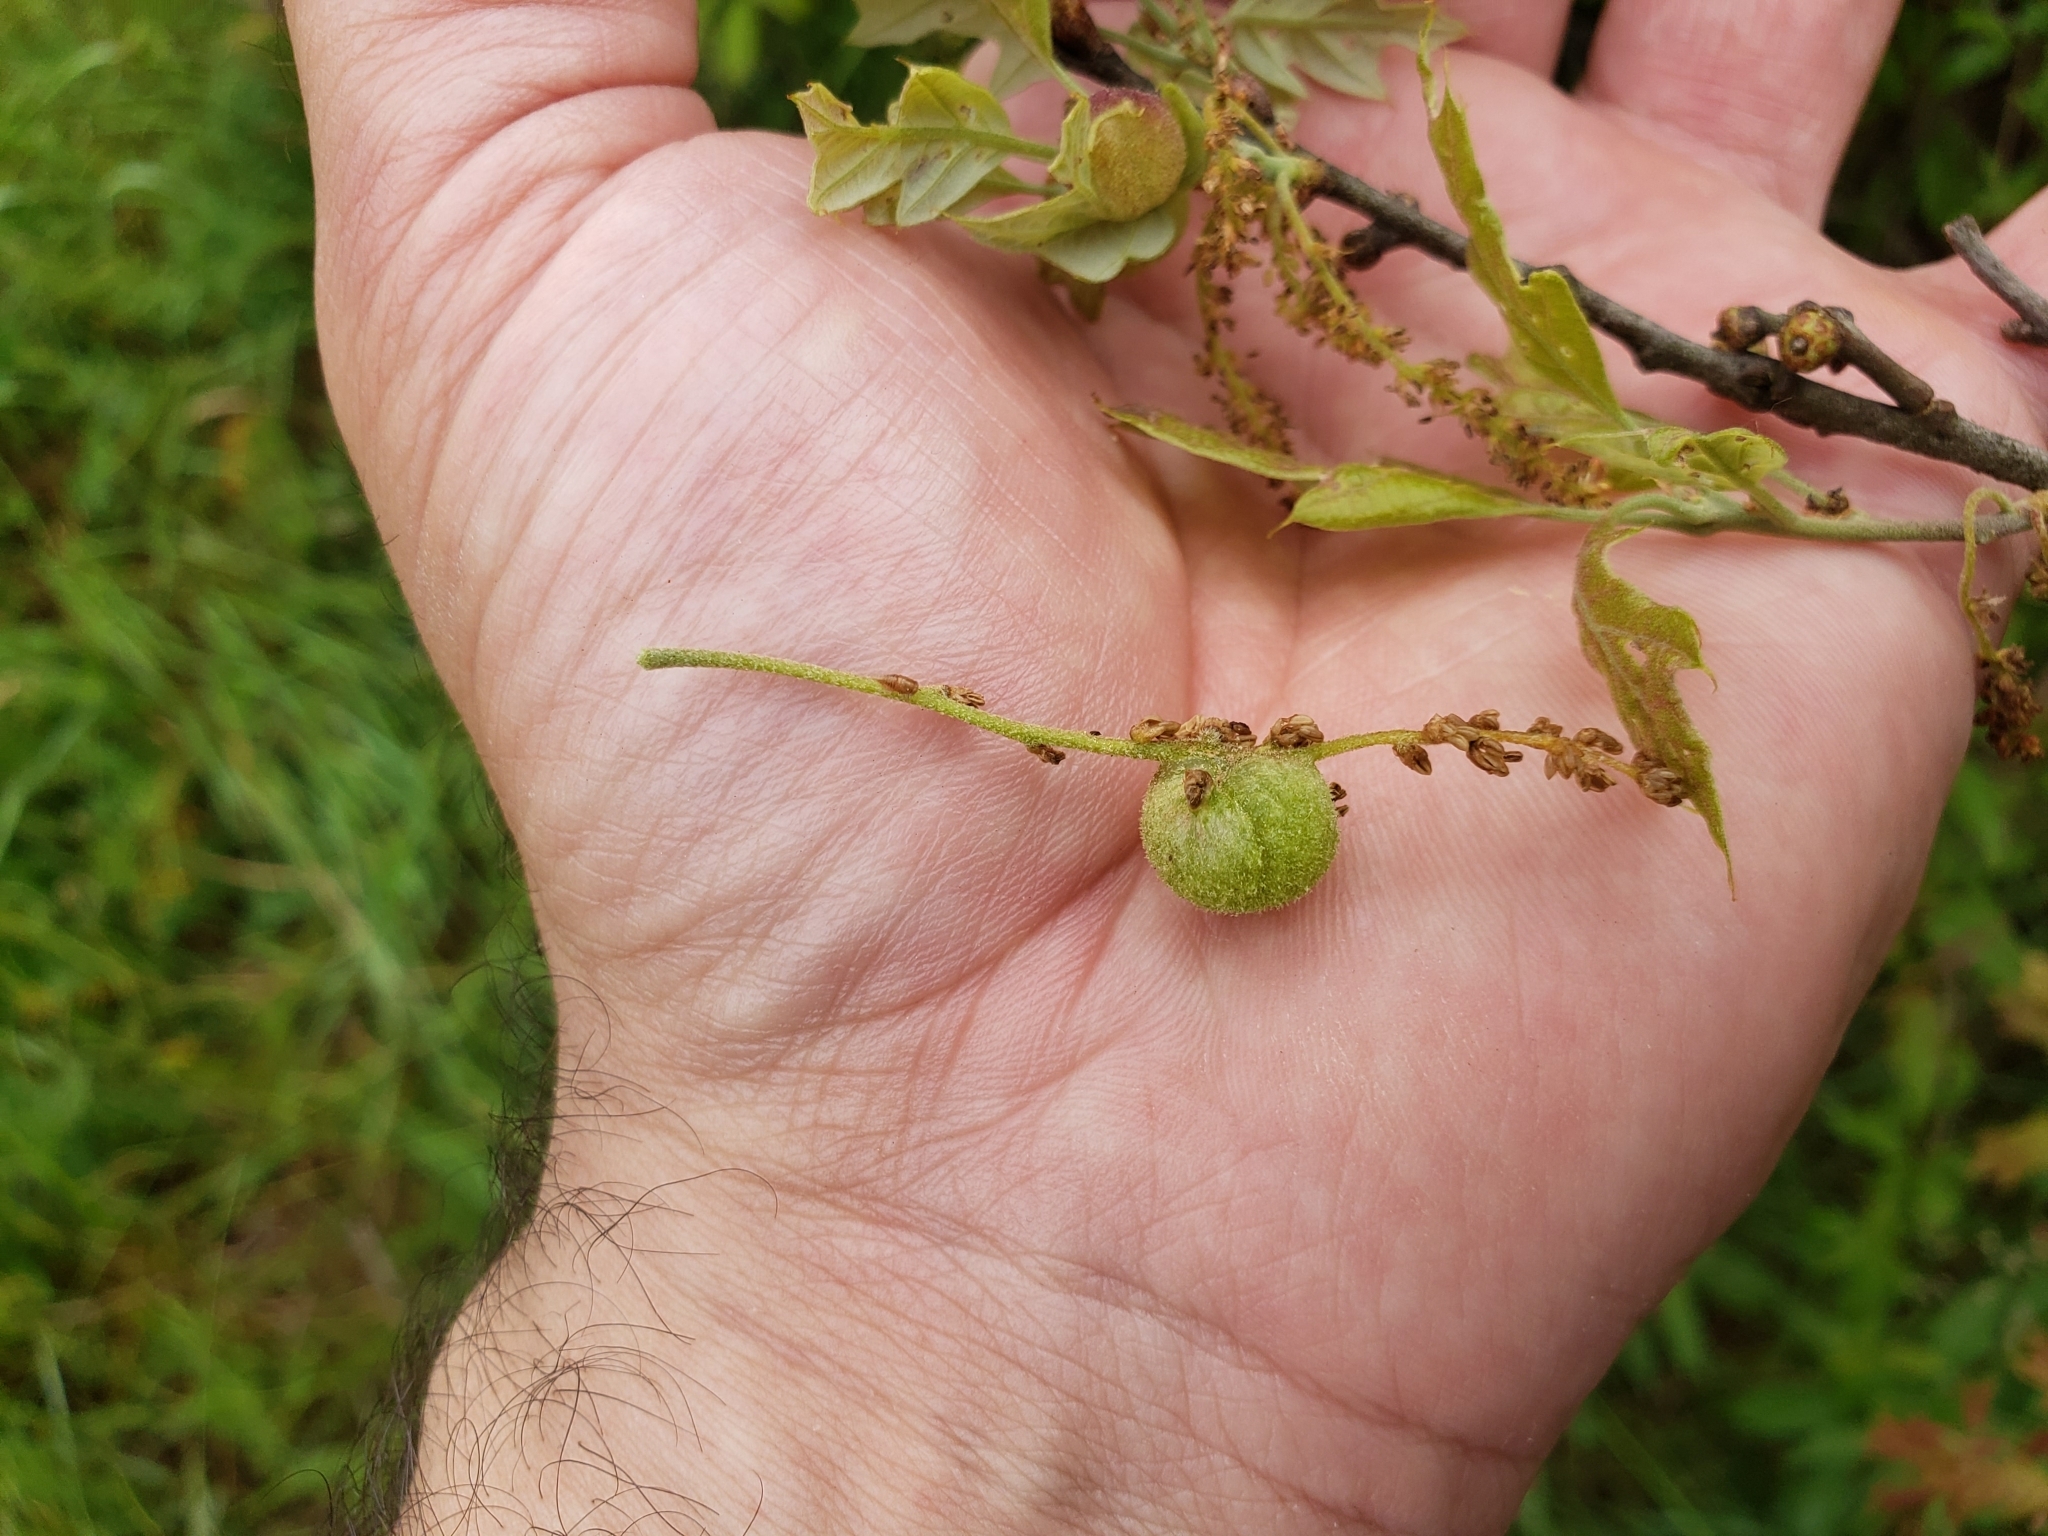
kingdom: Animalia
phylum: Arthropoda
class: Insecta
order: Hymenoptera
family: Cynipidae
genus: Dryocosmus
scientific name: Dryocosmus quercuspalustris
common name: Succulent oak gall wasp
